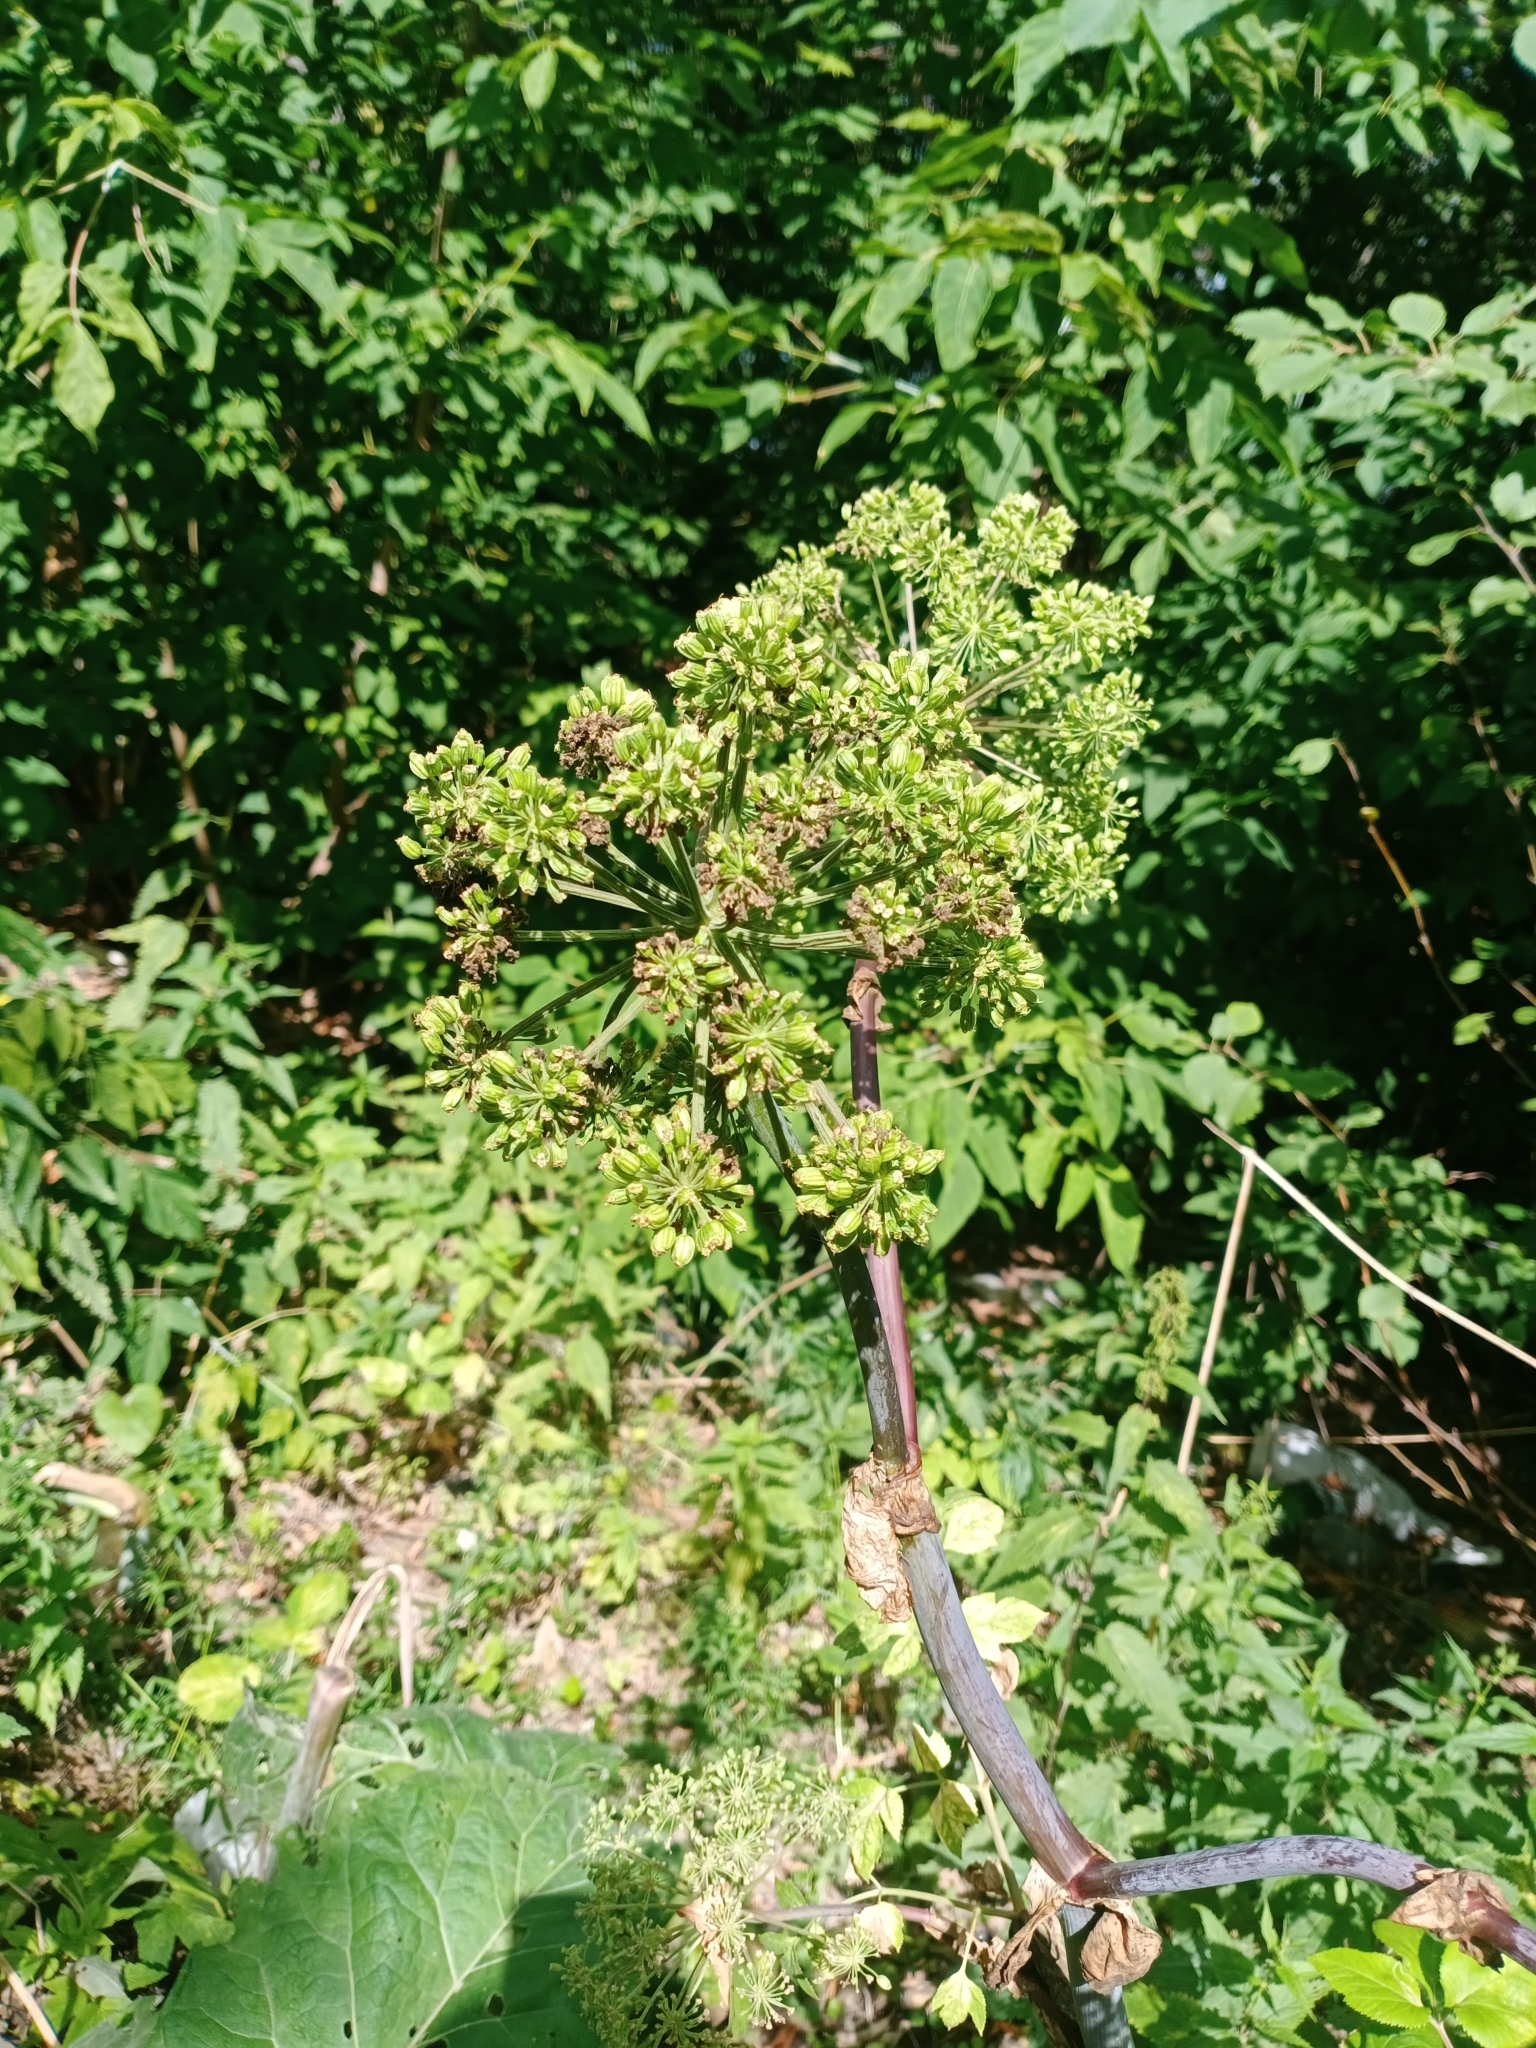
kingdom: Plantae
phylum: Tracheophyta
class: Magnoliopsida
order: Apiales
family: Apiaceae
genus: Angelica
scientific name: Angelica archangelica
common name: Garden angelica
